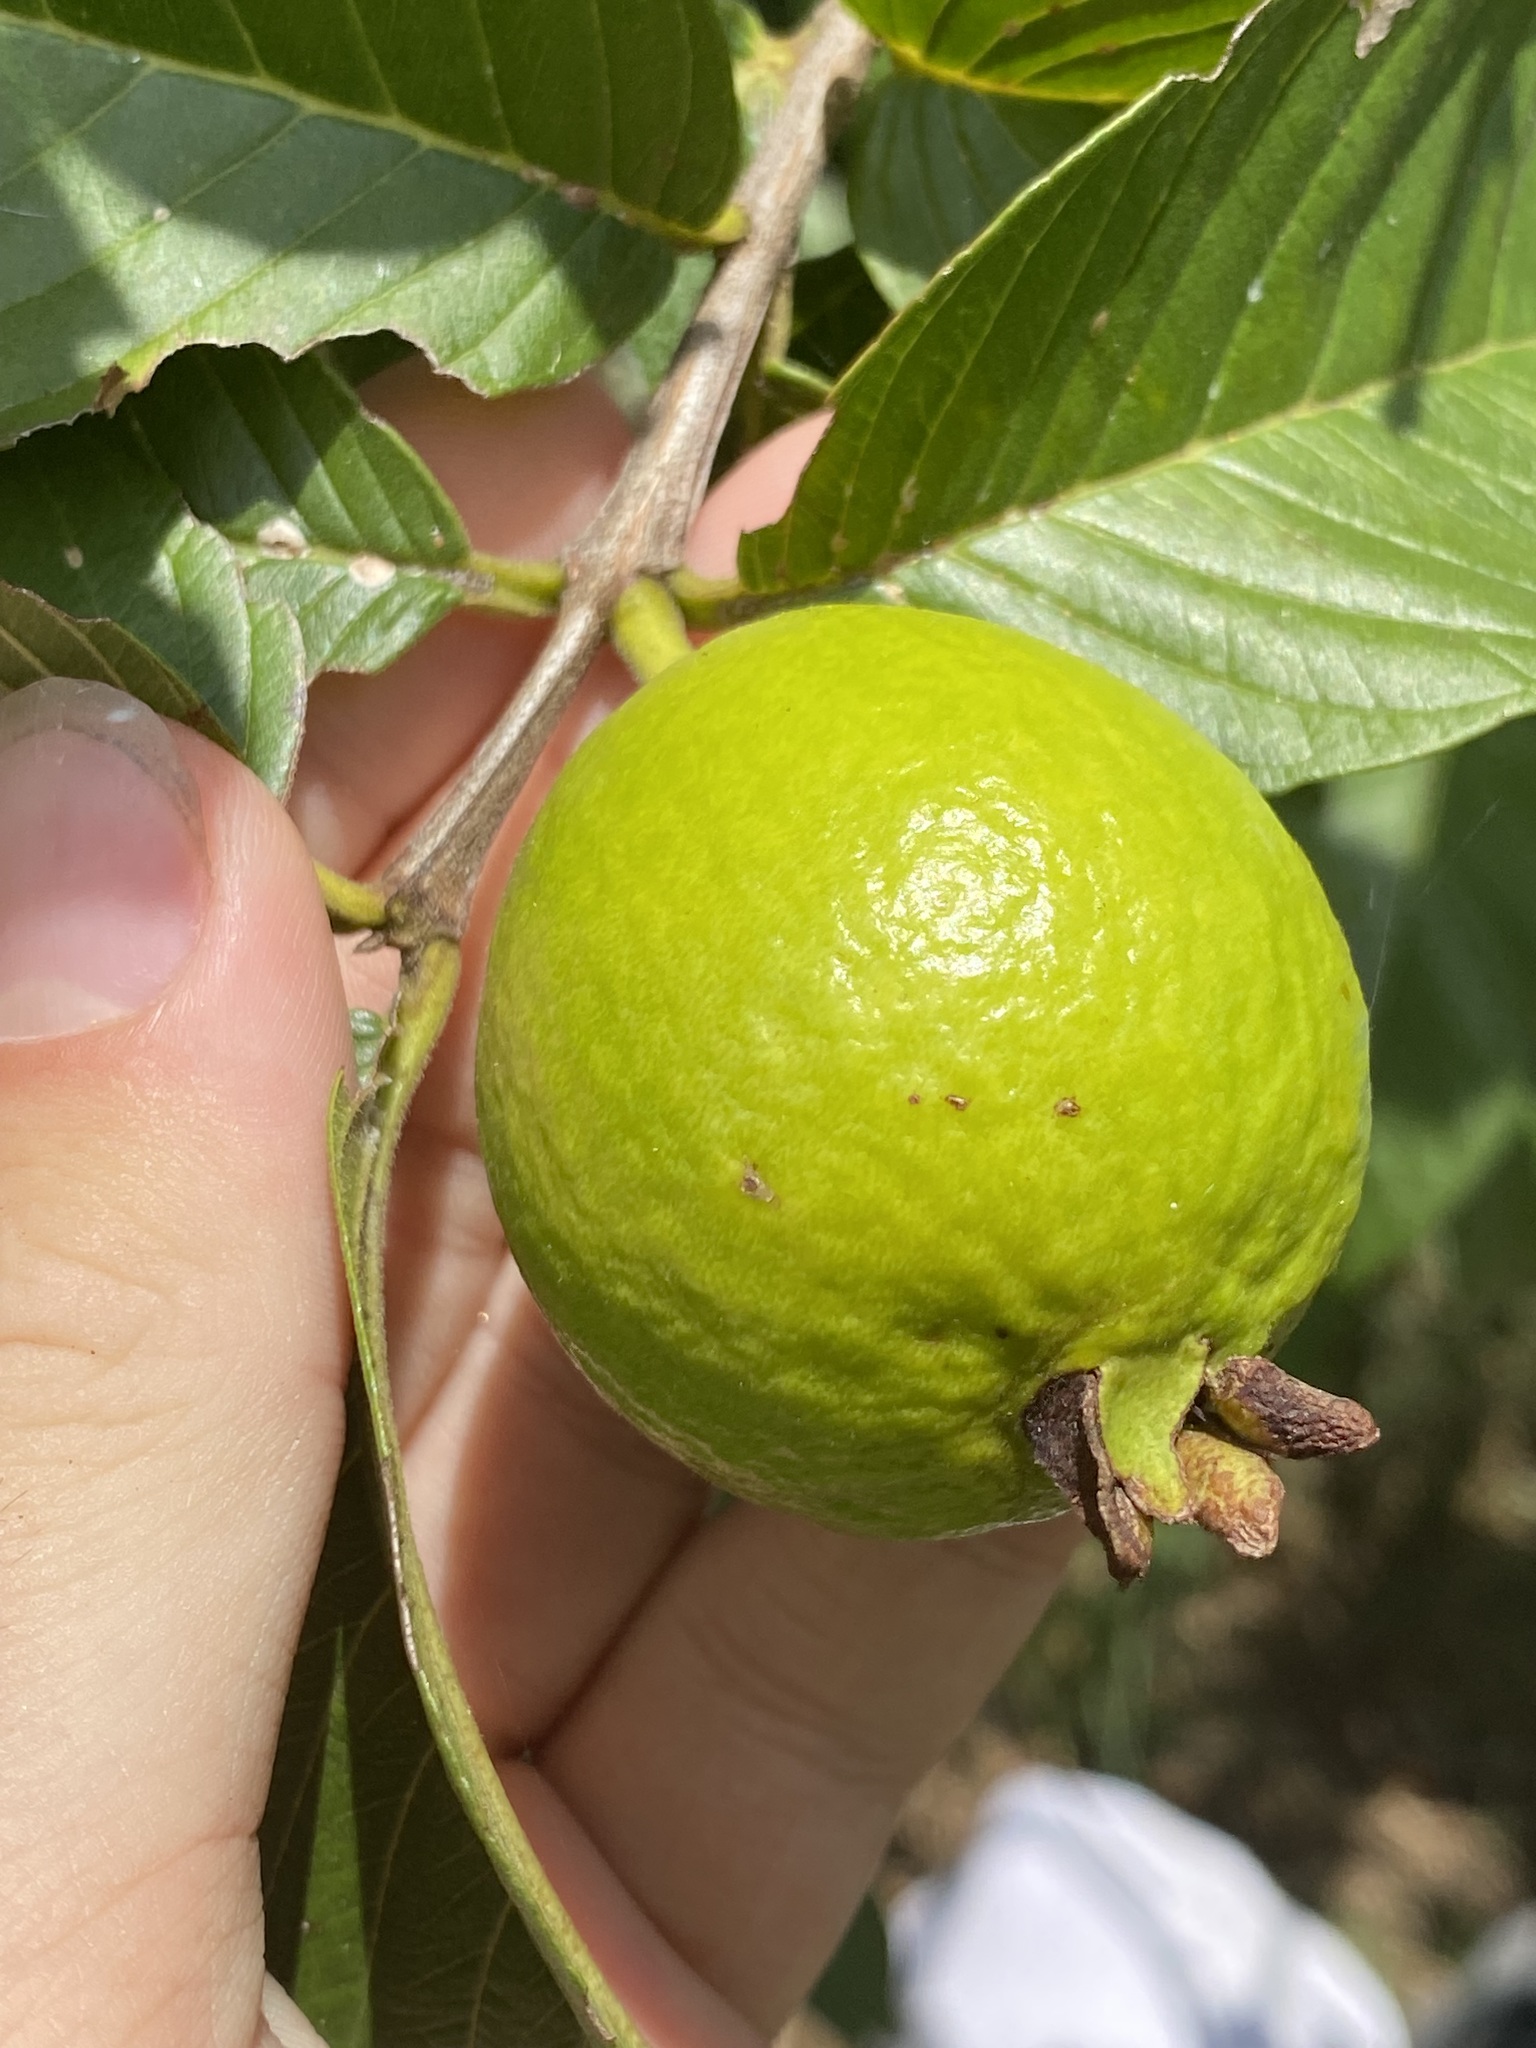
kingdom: Plantae
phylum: Tracheophyta
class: Magnoliopsida
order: Myrtales
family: Myrtaceae
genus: Psidium
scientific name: Psidium guajava
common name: Guava
